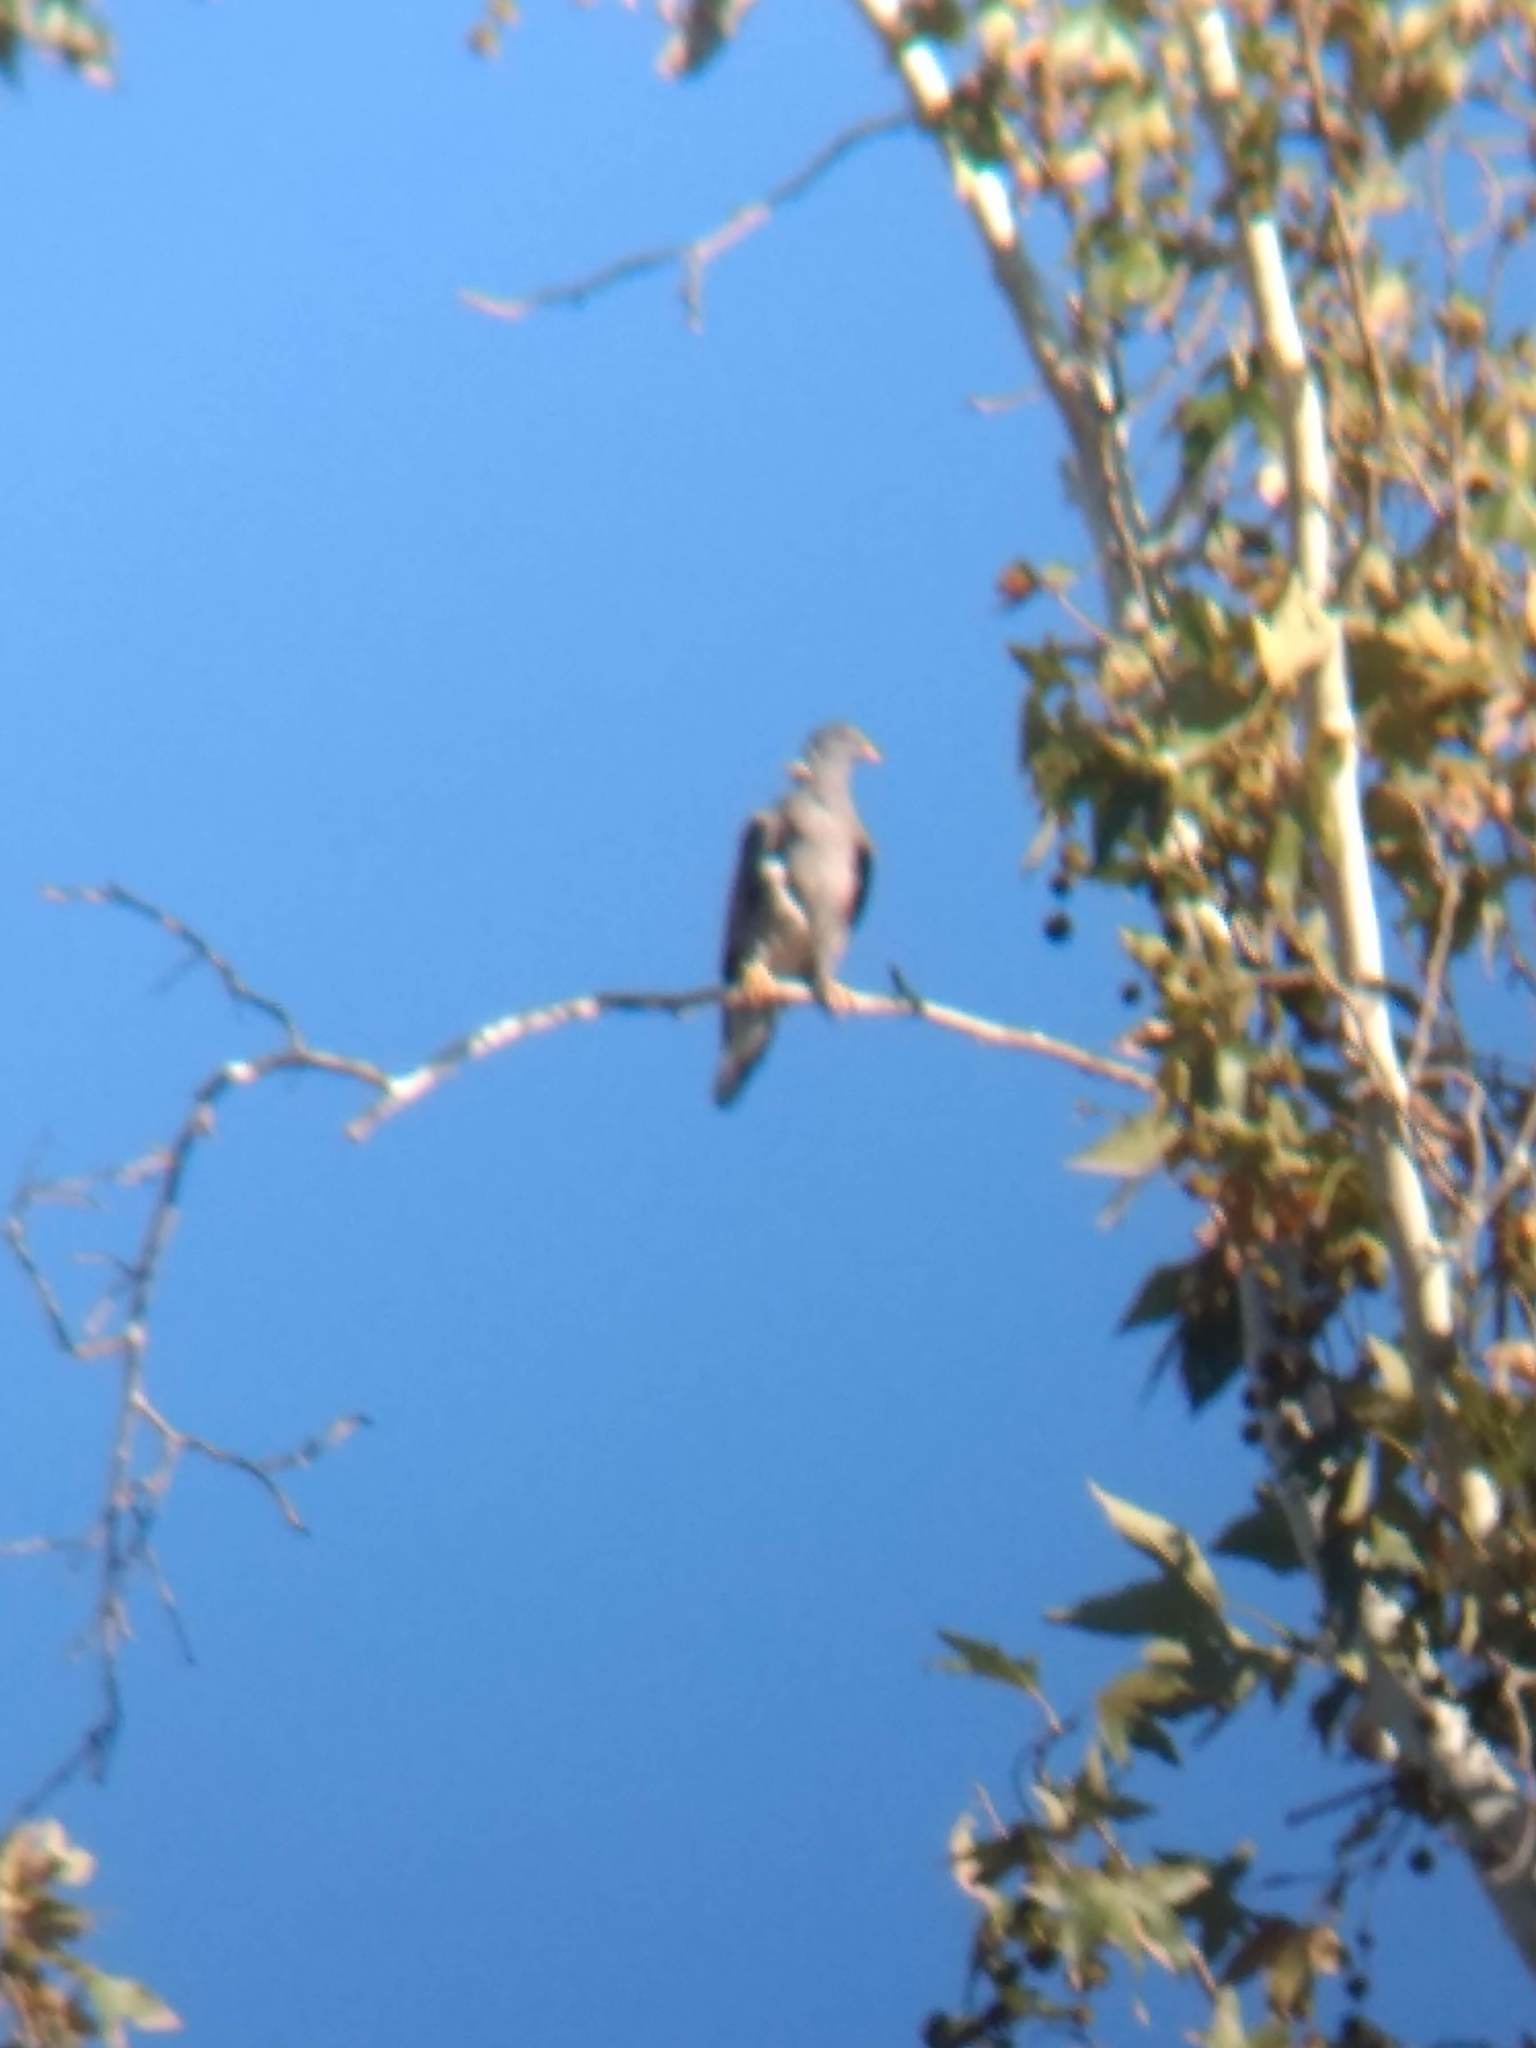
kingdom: Animalia
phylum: Chordata
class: Aves
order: Columbiformes
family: Columbidae
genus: Patagioenas
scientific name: Patagioenas fasciata
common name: Band-tailed pigeon
